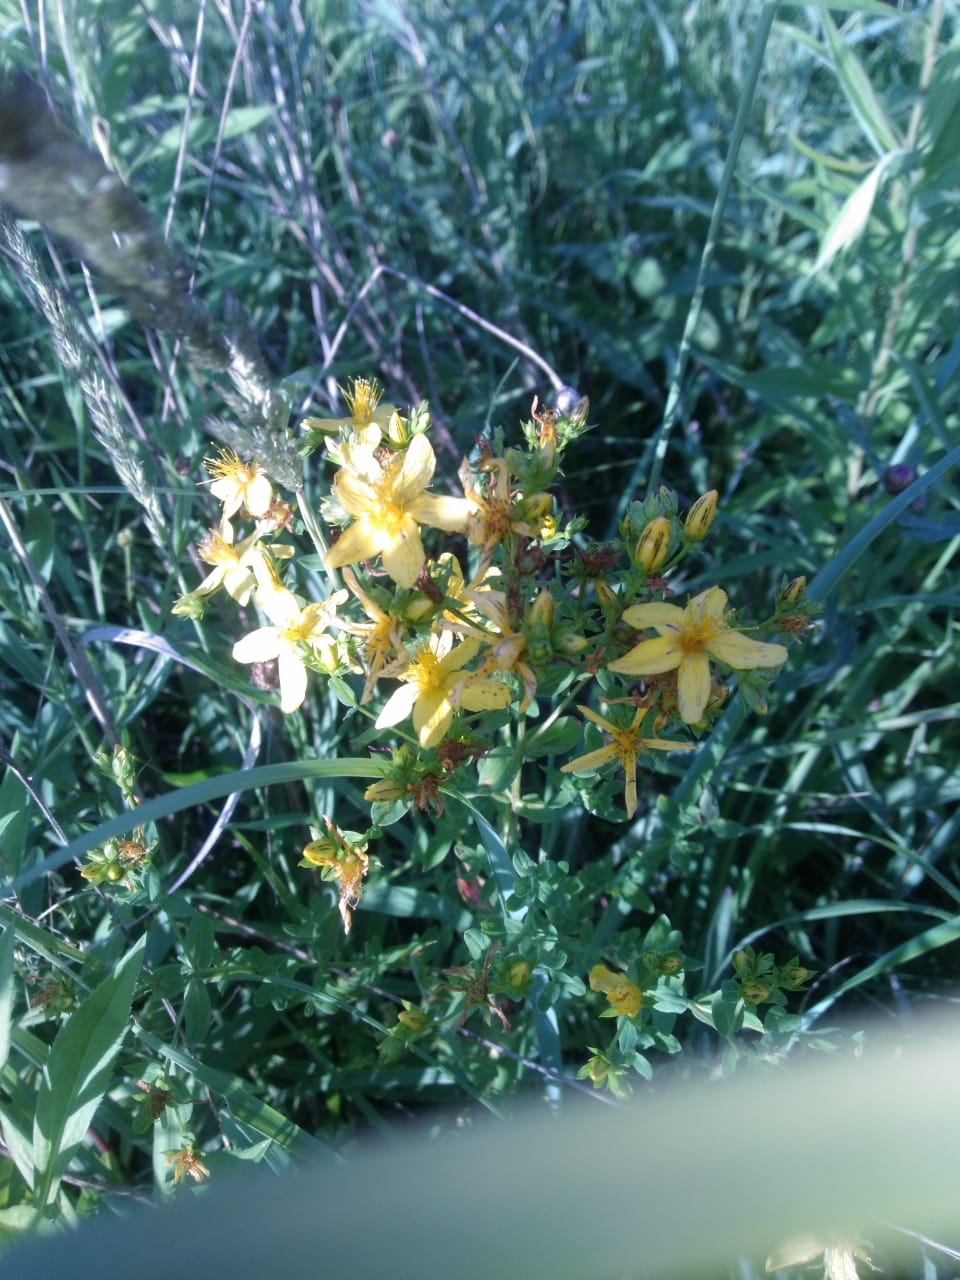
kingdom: Plantae
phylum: Tracheophyta
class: Magnoliopsida
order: Malpighiales
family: Hypericaceae
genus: Hypericum
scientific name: Hypericum perforatum
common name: Common st. johnswort
